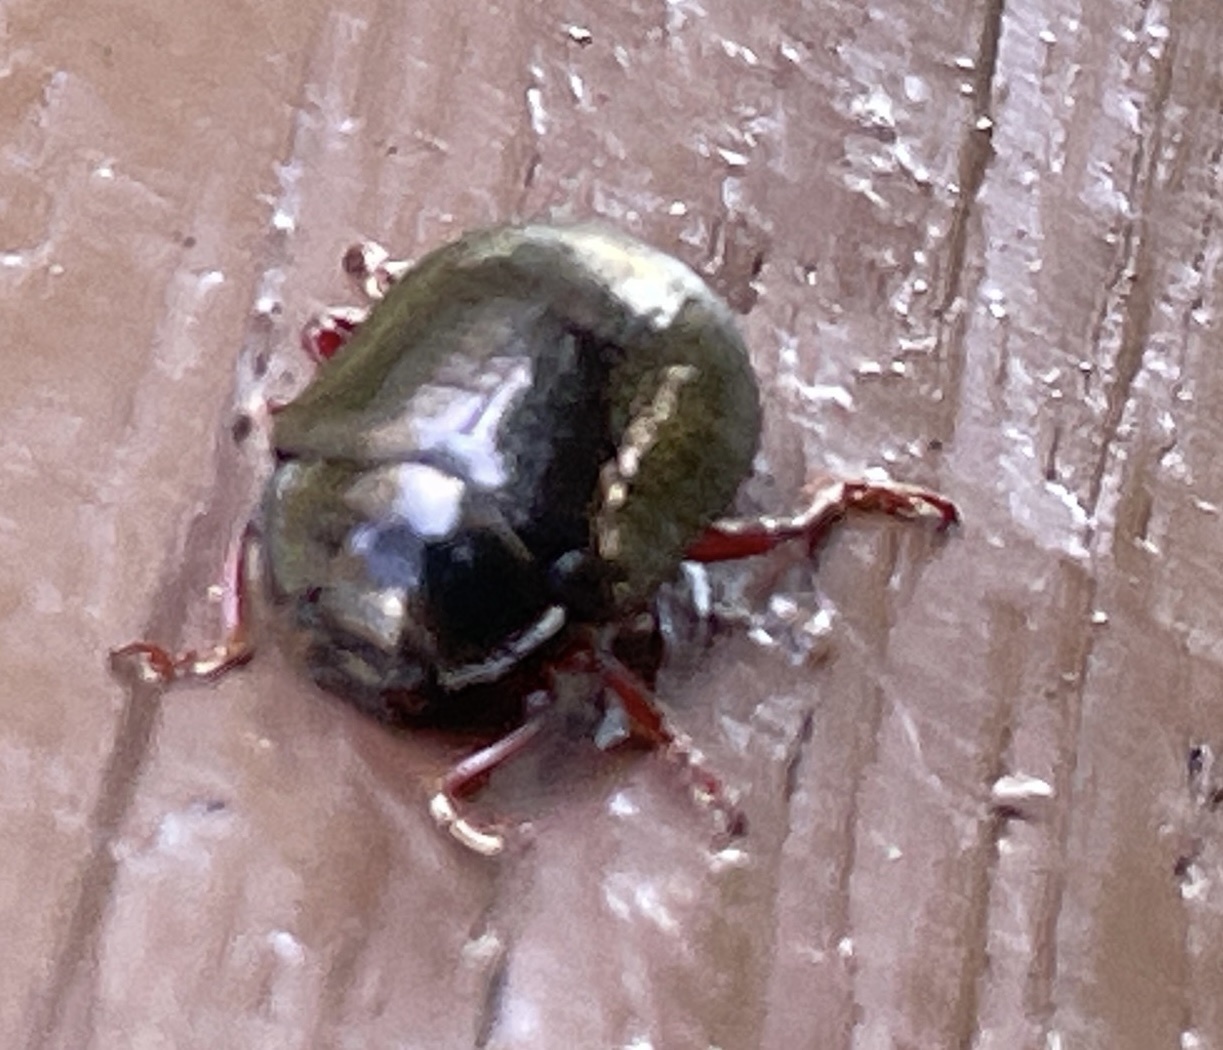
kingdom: Animalia
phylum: Arthropoda
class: Insecta
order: Coleoptera
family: Chrysomelidae
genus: Chrysolina
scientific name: Chrysolina bankii
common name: Leaf beetle
